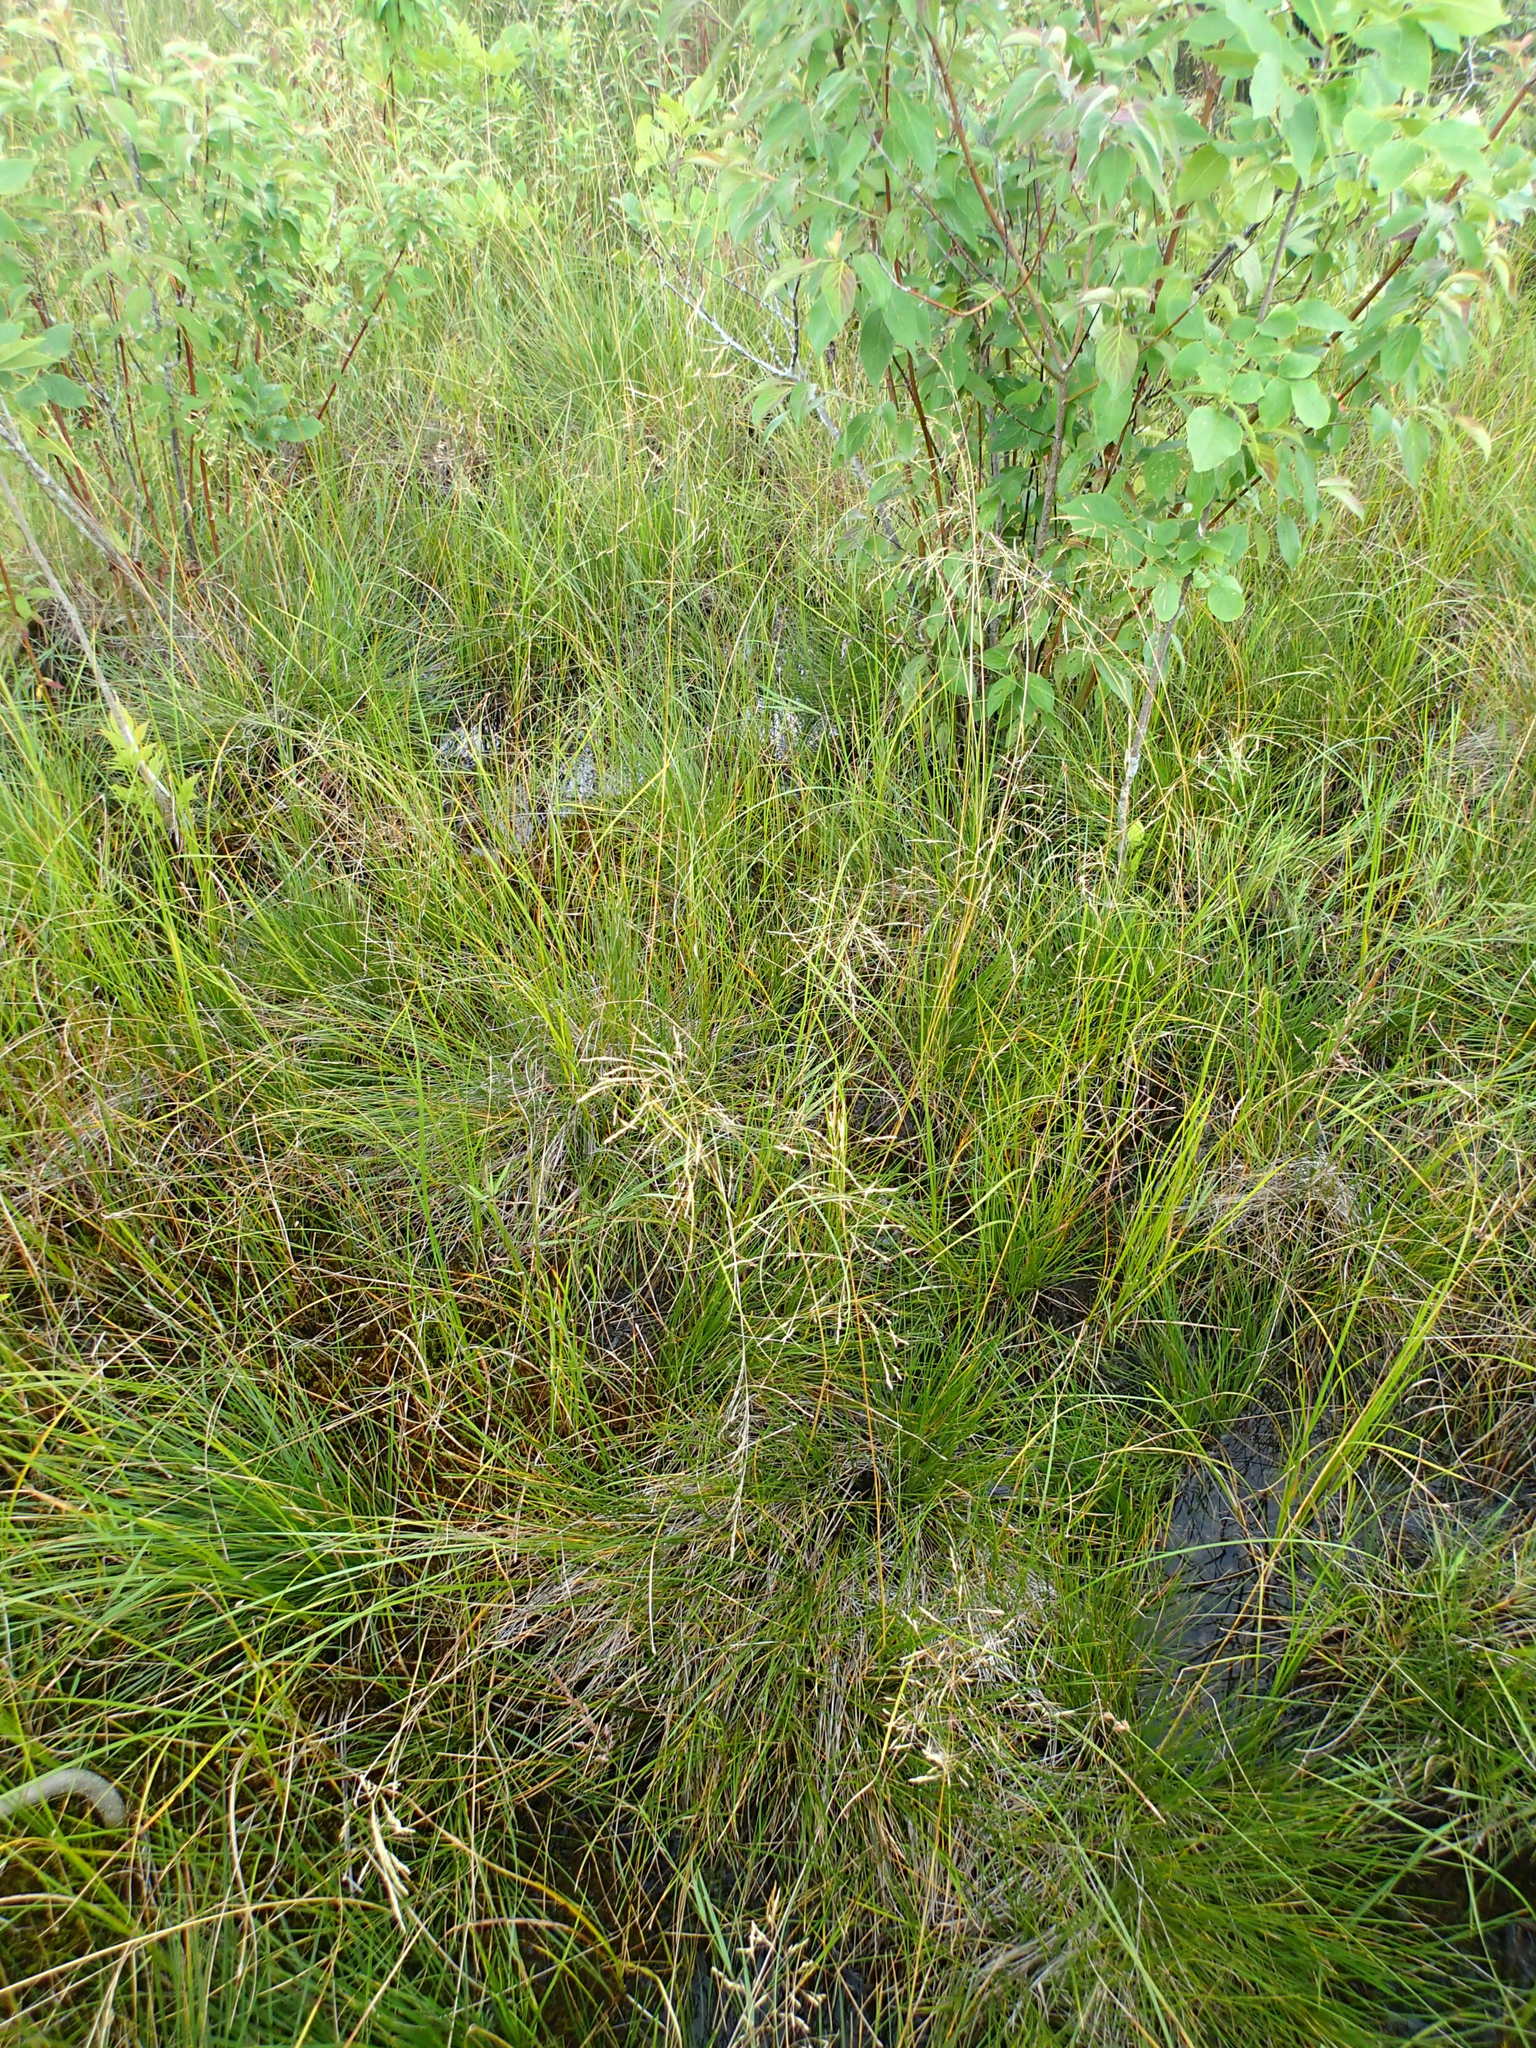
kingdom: Plantae
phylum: Tracheophyta
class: Liliopsida
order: Poales
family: Poaceae
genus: Deschampsia
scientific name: Deschampsia cespitosa
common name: Tufted hair-grass
